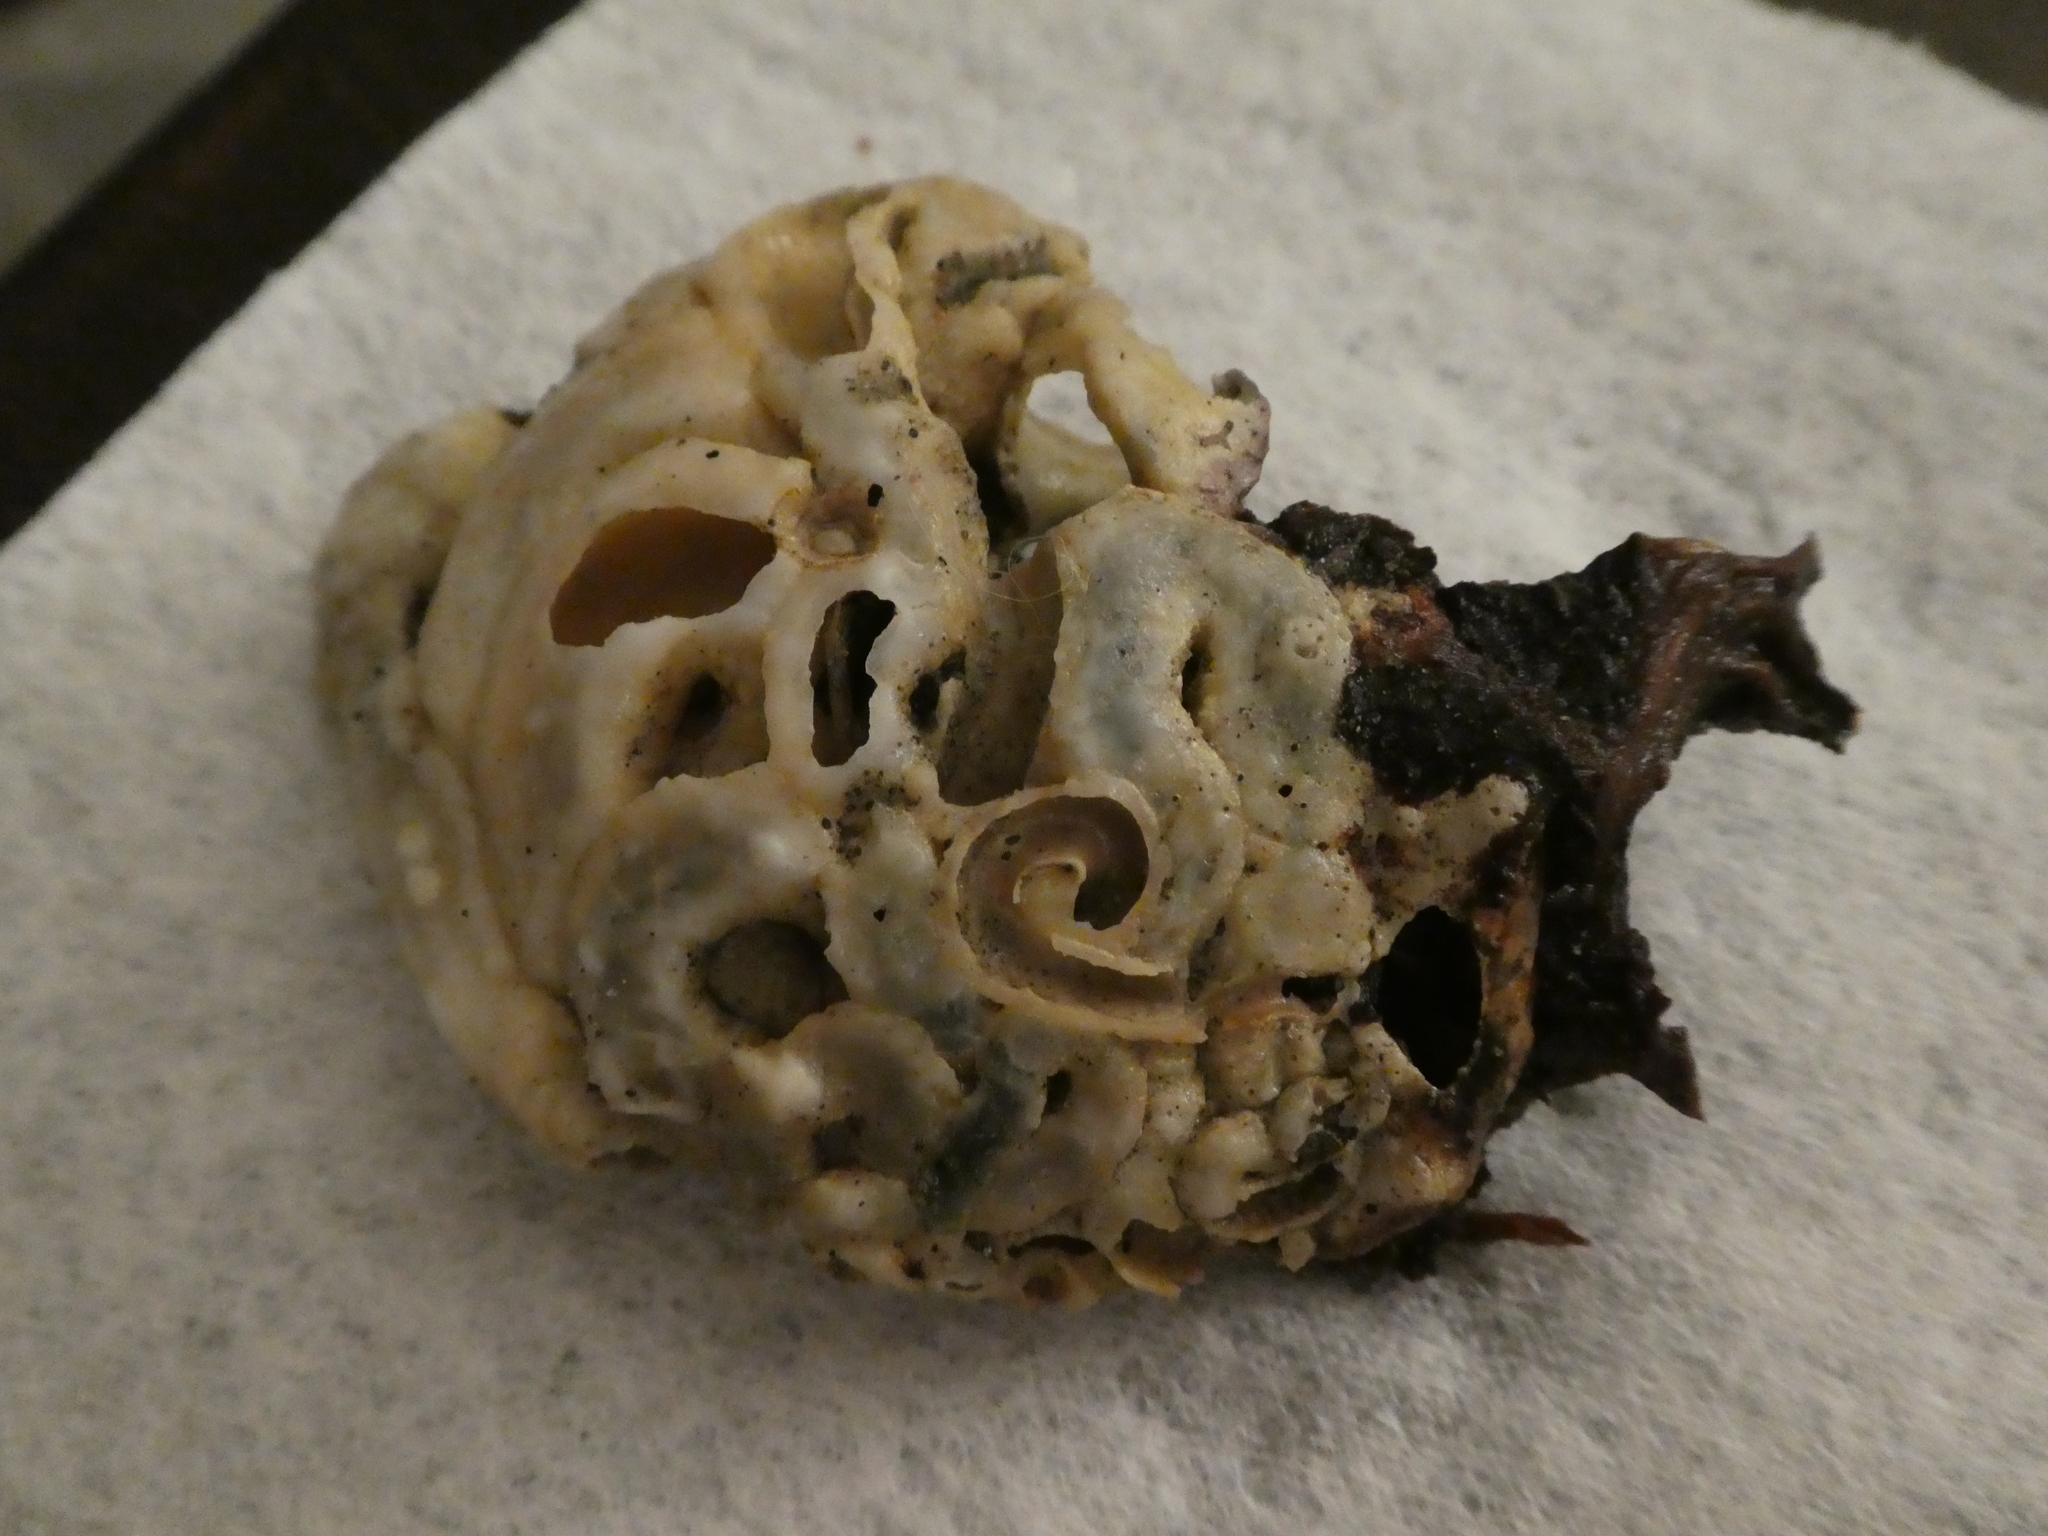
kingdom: Animalia
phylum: Mollusca
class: Gastropoda
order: Littorinimorpha
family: Vermetidae
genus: Thylacodes
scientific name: Thylacodes squamigerus
